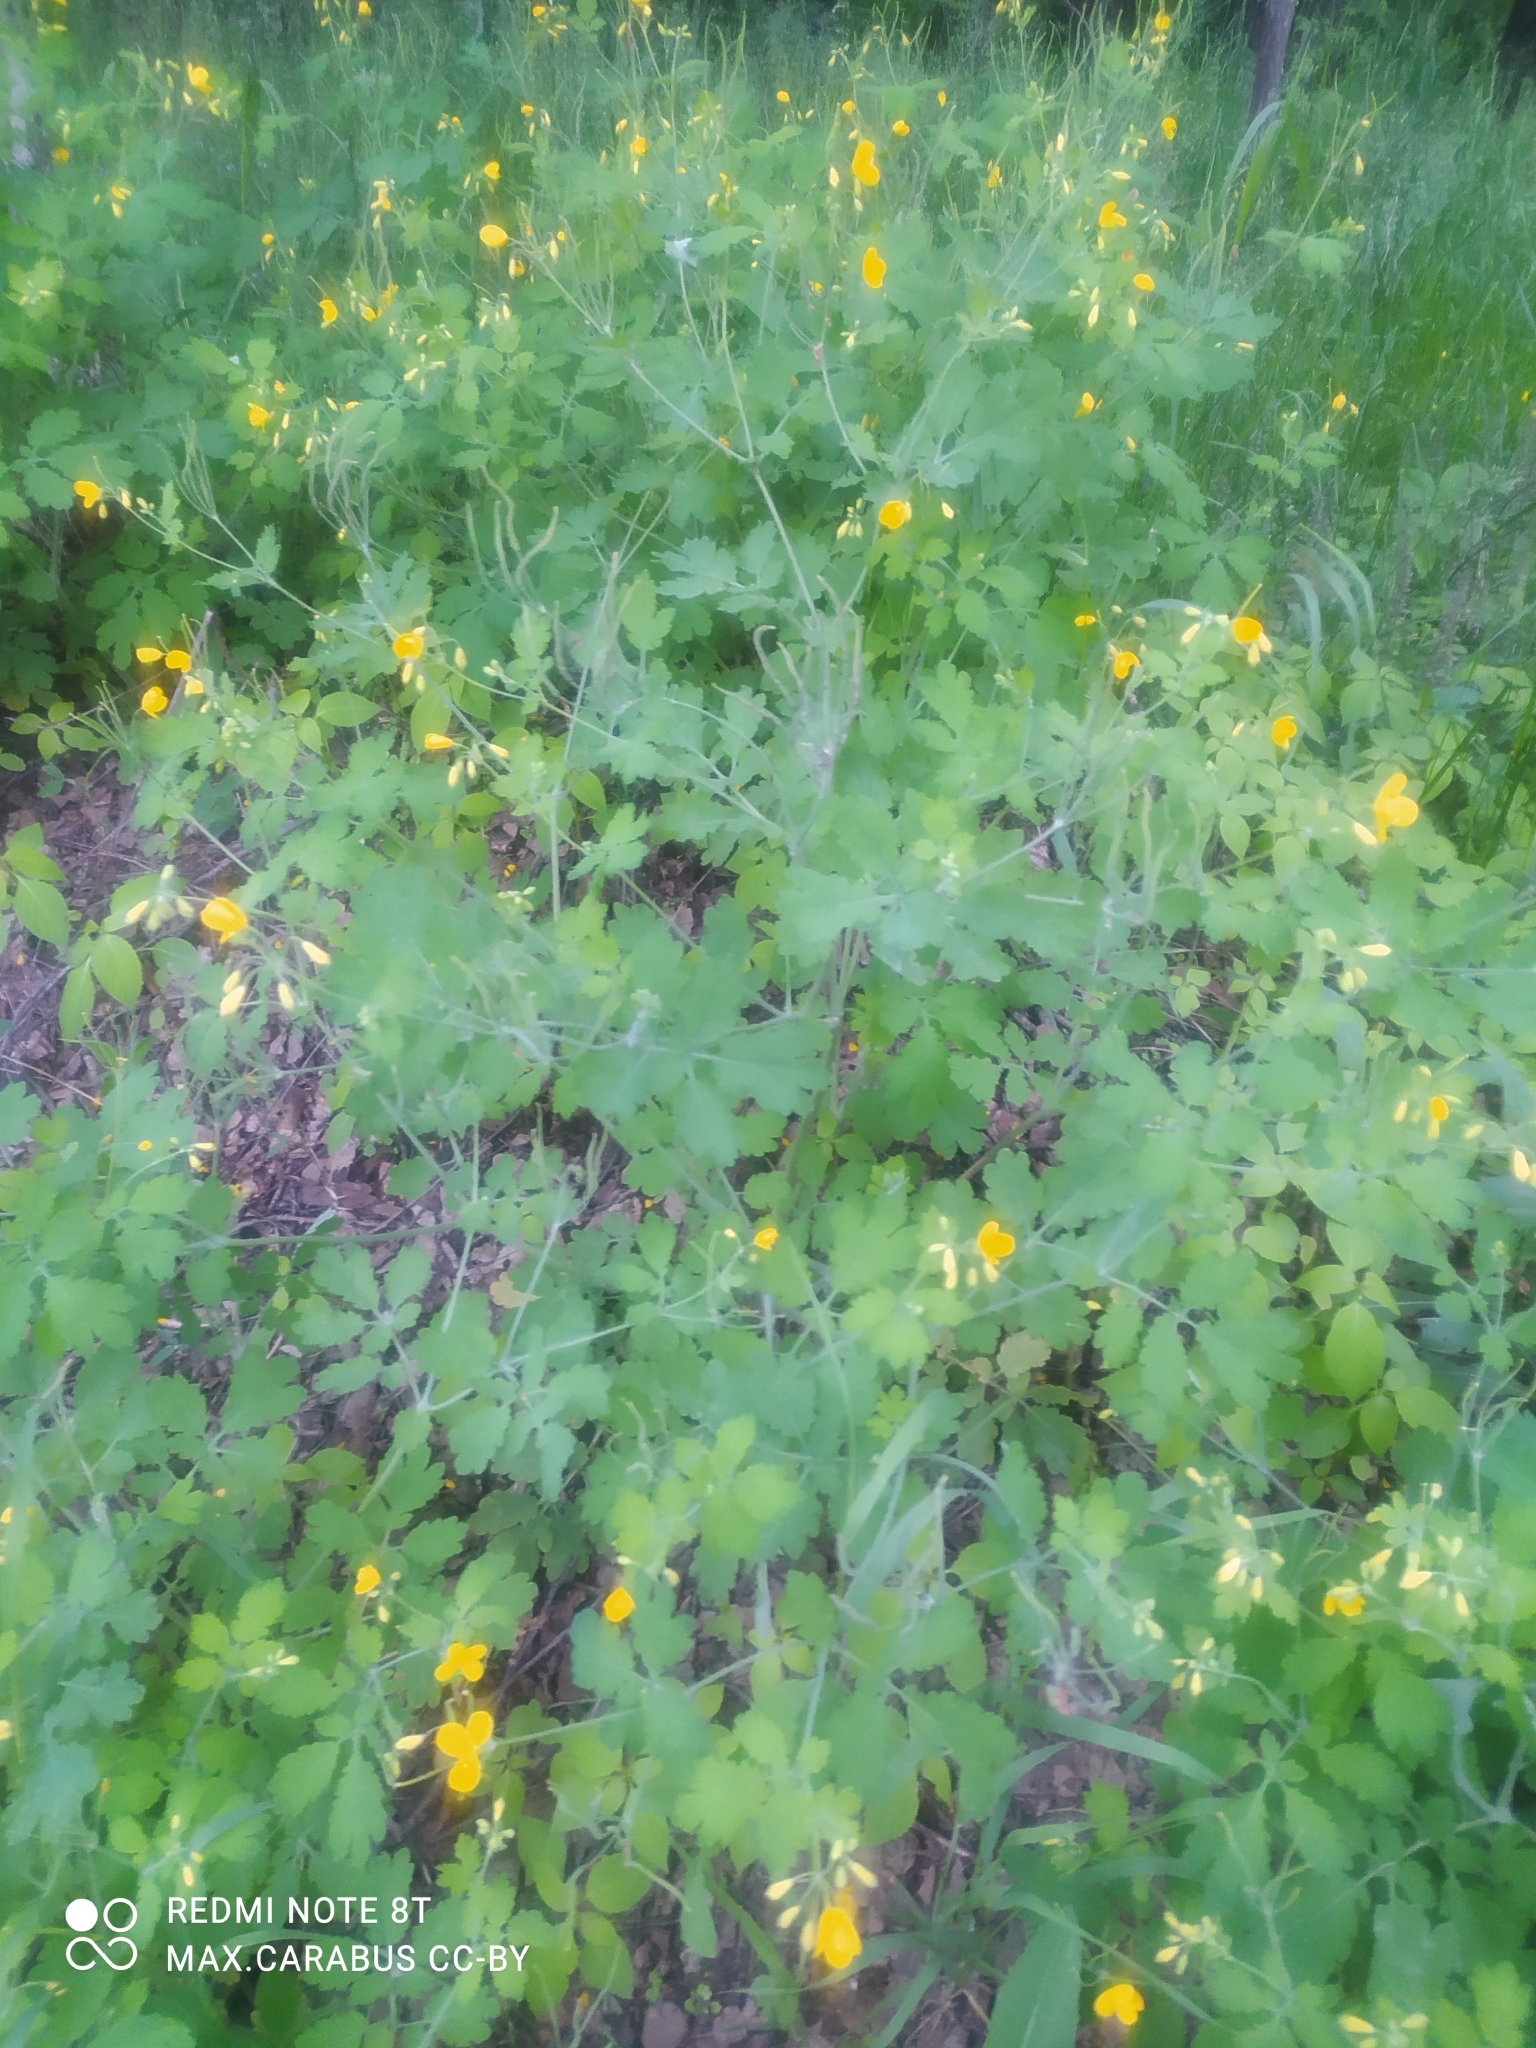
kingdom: Plantae
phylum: Tracheophyta
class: Magnoliopsida
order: Ranunculales
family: Papaveraceae
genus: Chelidonium
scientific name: Chelidonium majus
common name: Greater celandine
